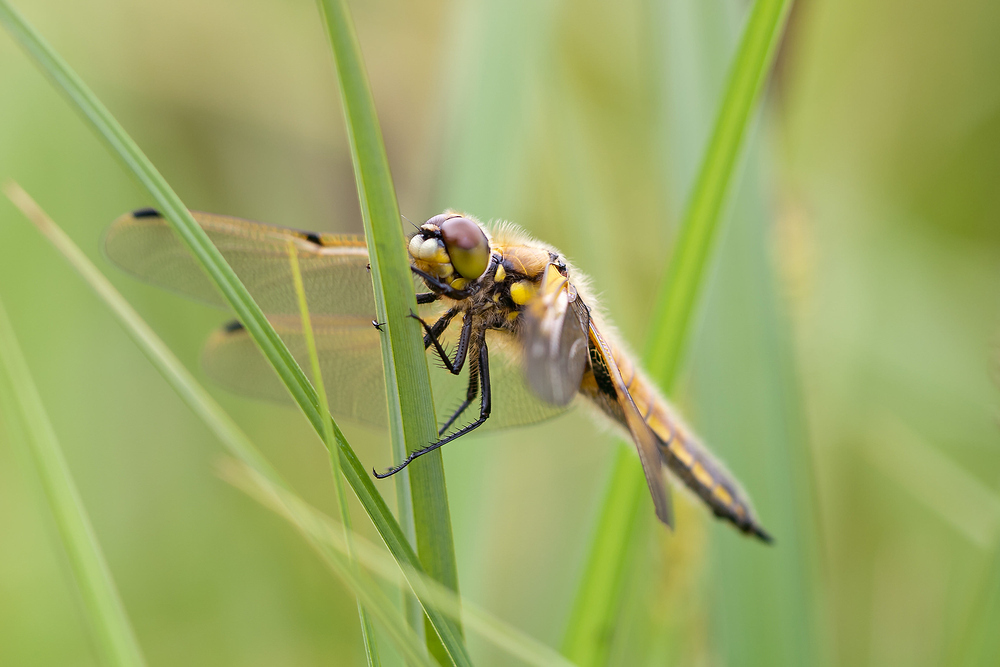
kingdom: Animalia
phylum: Arthropoda
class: Insecta
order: Odonata
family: Libellulidae
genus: Libellula
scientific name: Libellula quadrimaculata
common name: Four-spotted chaser
